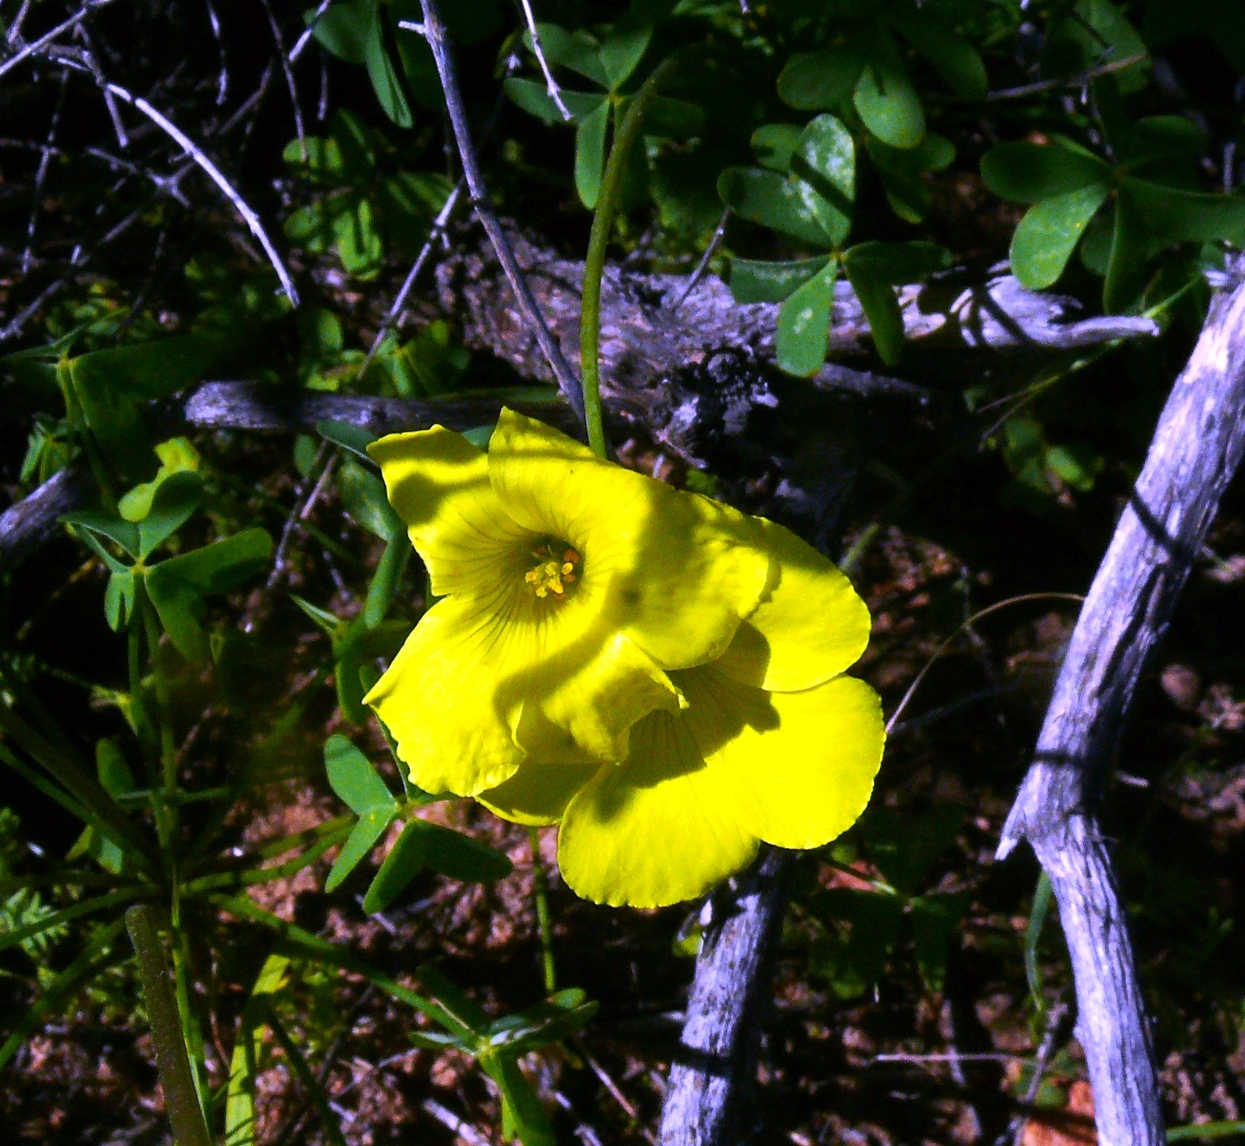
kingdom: Plantae
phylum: Tracheophyta
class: Magnoliopsida
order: Oxalidales
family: Oxalidaceae
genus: Oxalis
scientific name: Oxalis pes-caprae
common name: Bermuda-buttercup
